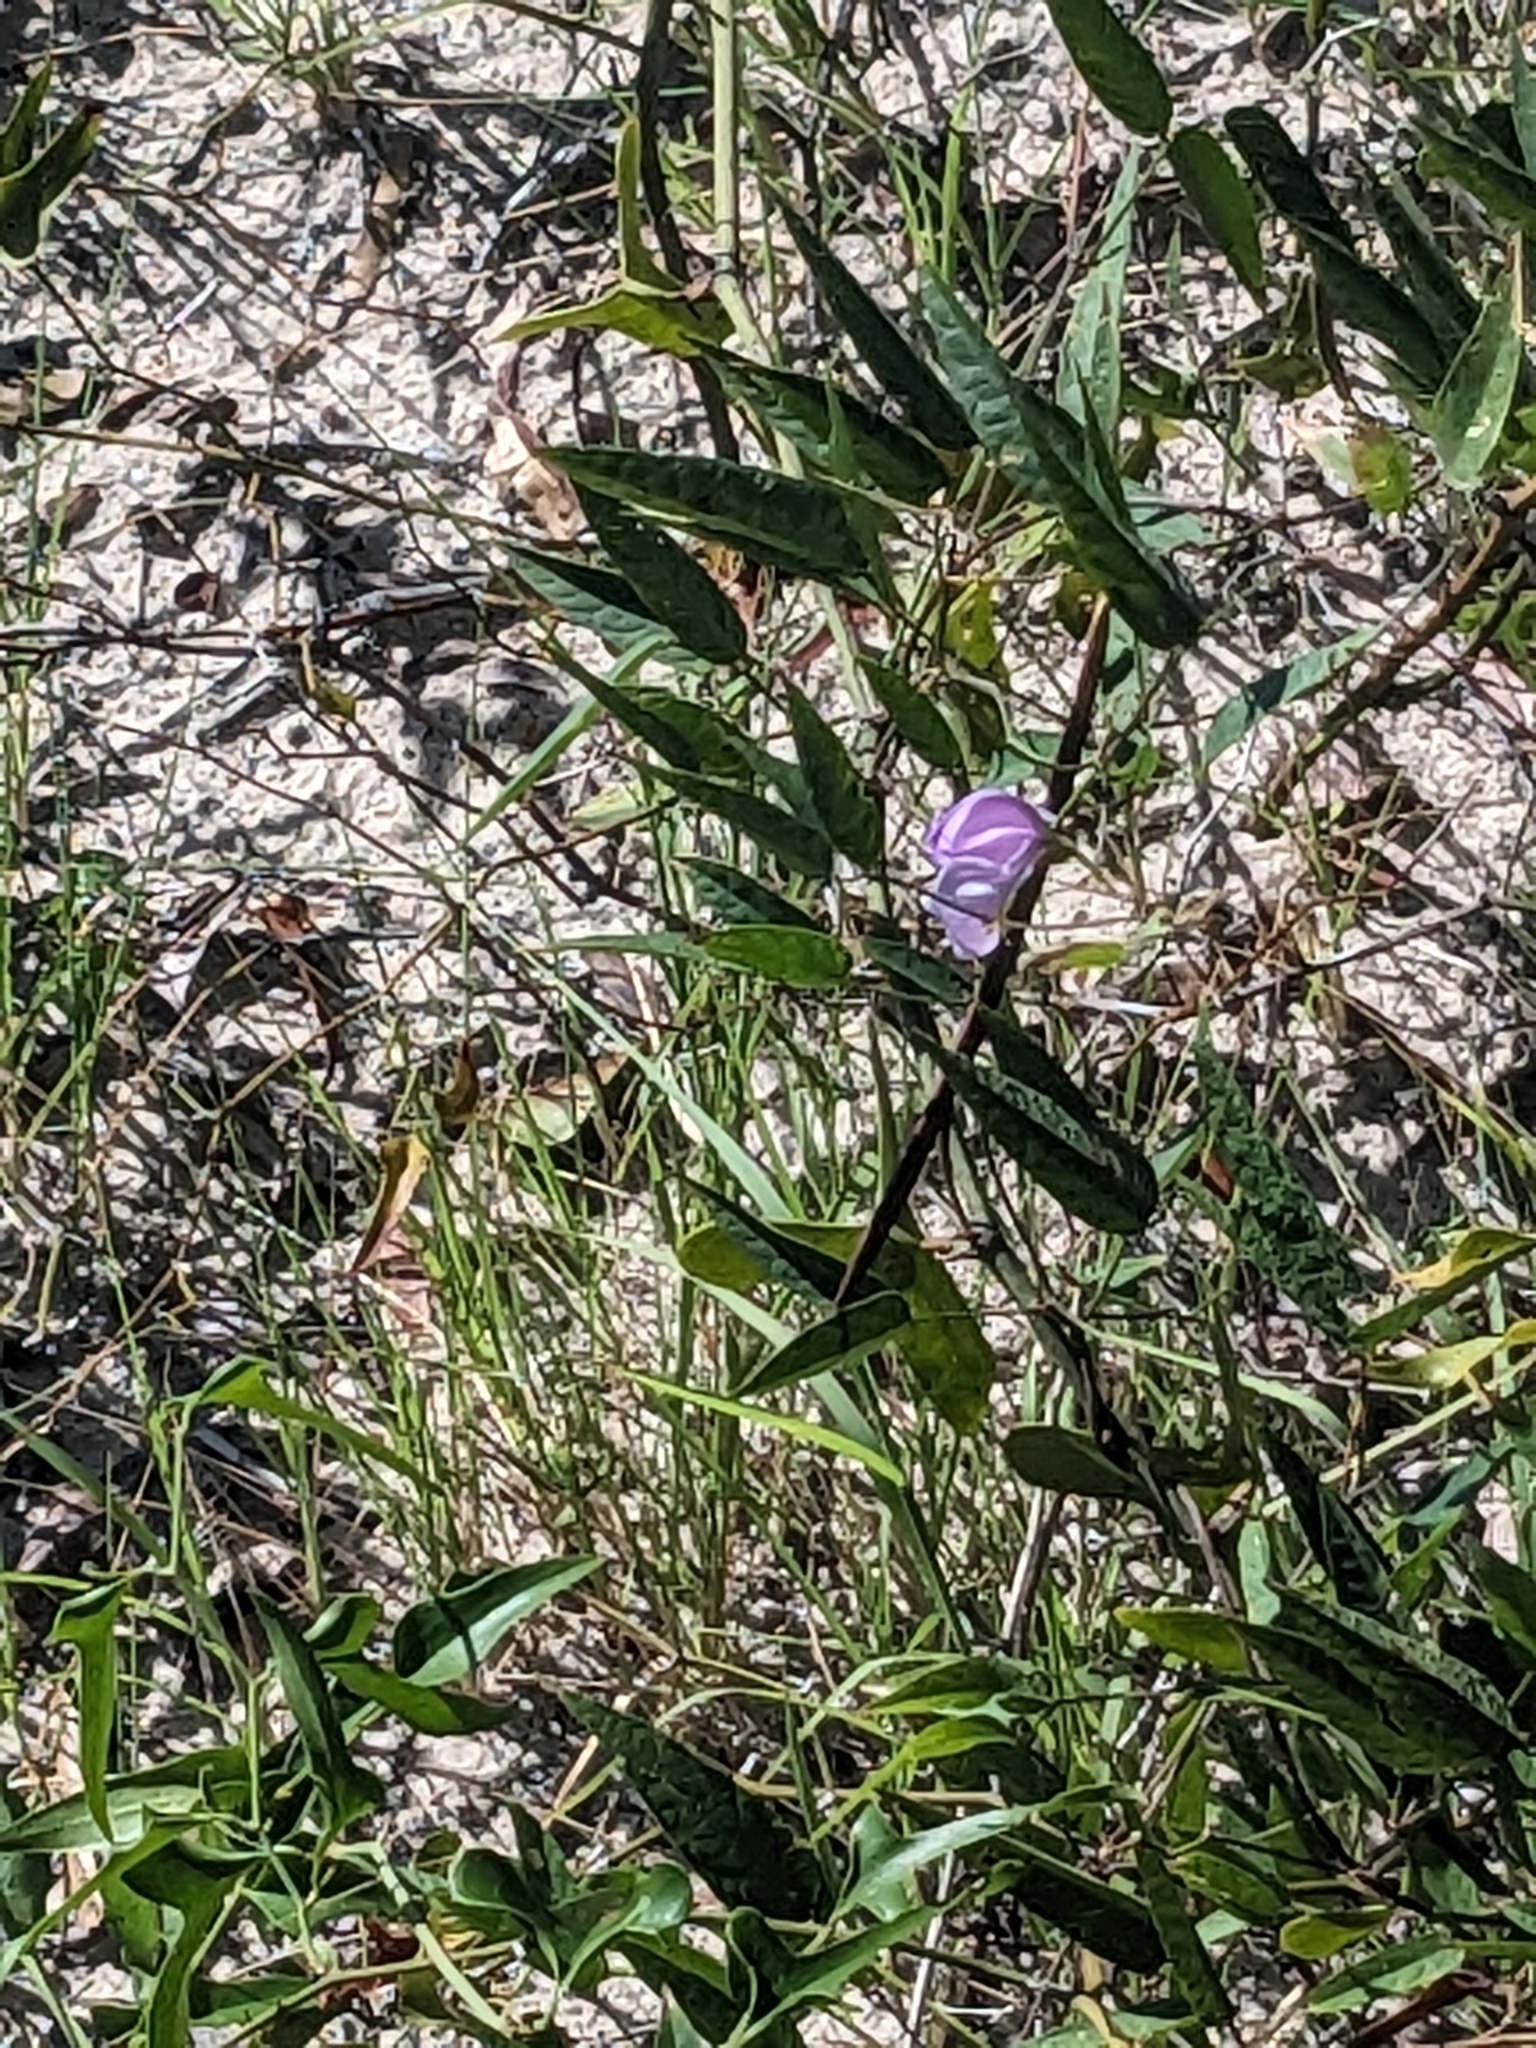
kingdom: Plantae
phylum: Tracheophyta
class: Magnoliopsida
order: Fabales
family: Fabaceae
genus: Centrosema
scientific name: Centrosema virginianum
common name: Butterfly-pea
